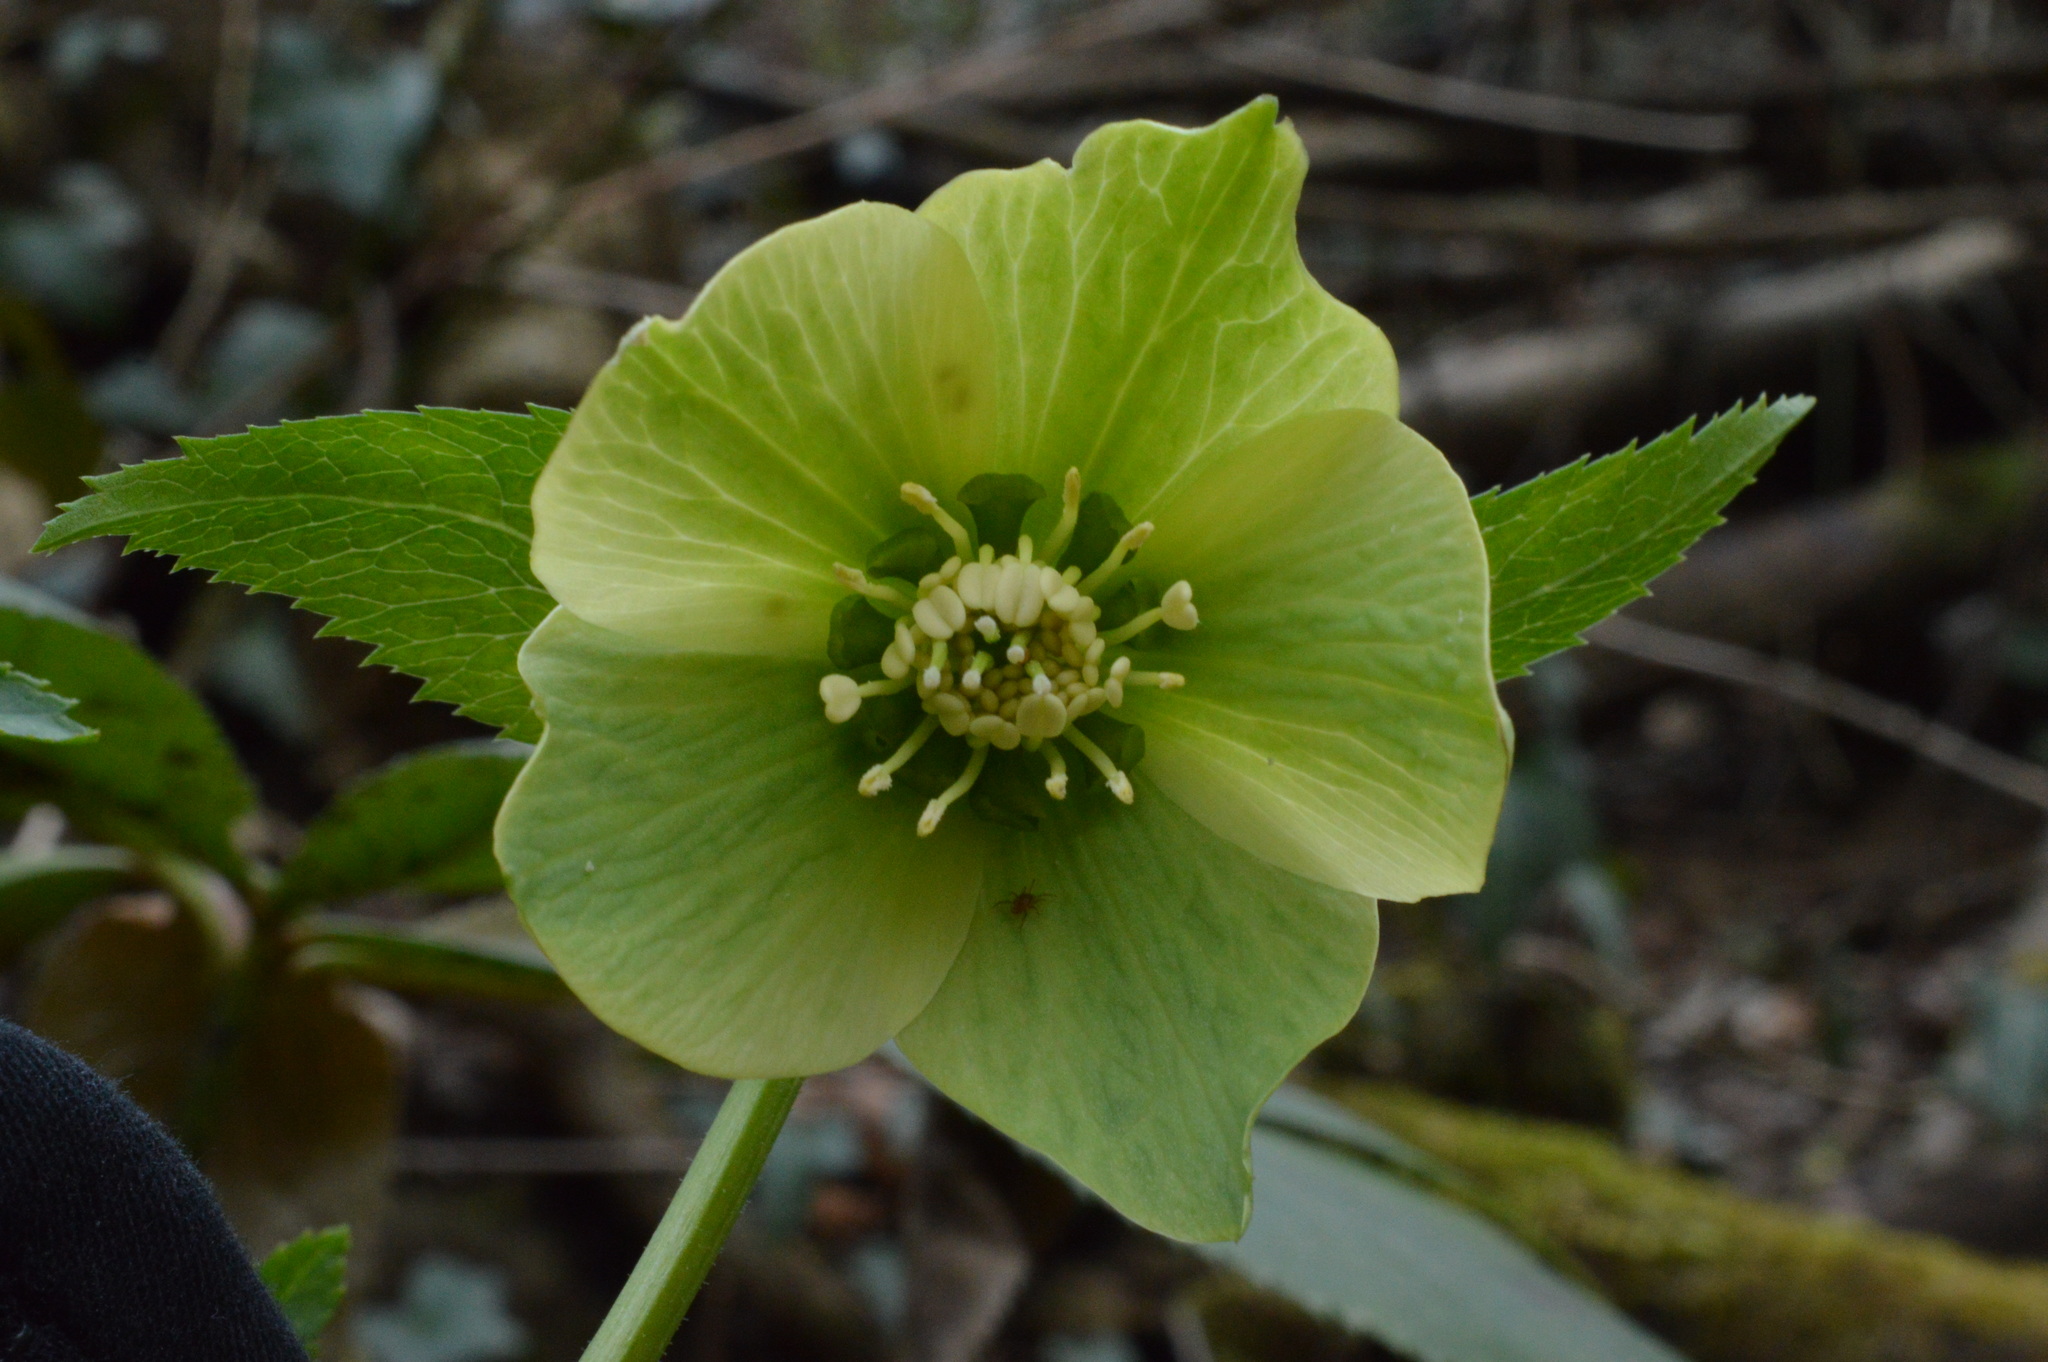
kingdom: Plantae
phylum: Tracheophyta
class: Magnoliopsida
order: Ranunculales
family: Ranunculaceae
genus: Helleborus
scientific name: Helleborus viridis
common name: Green hellebore
